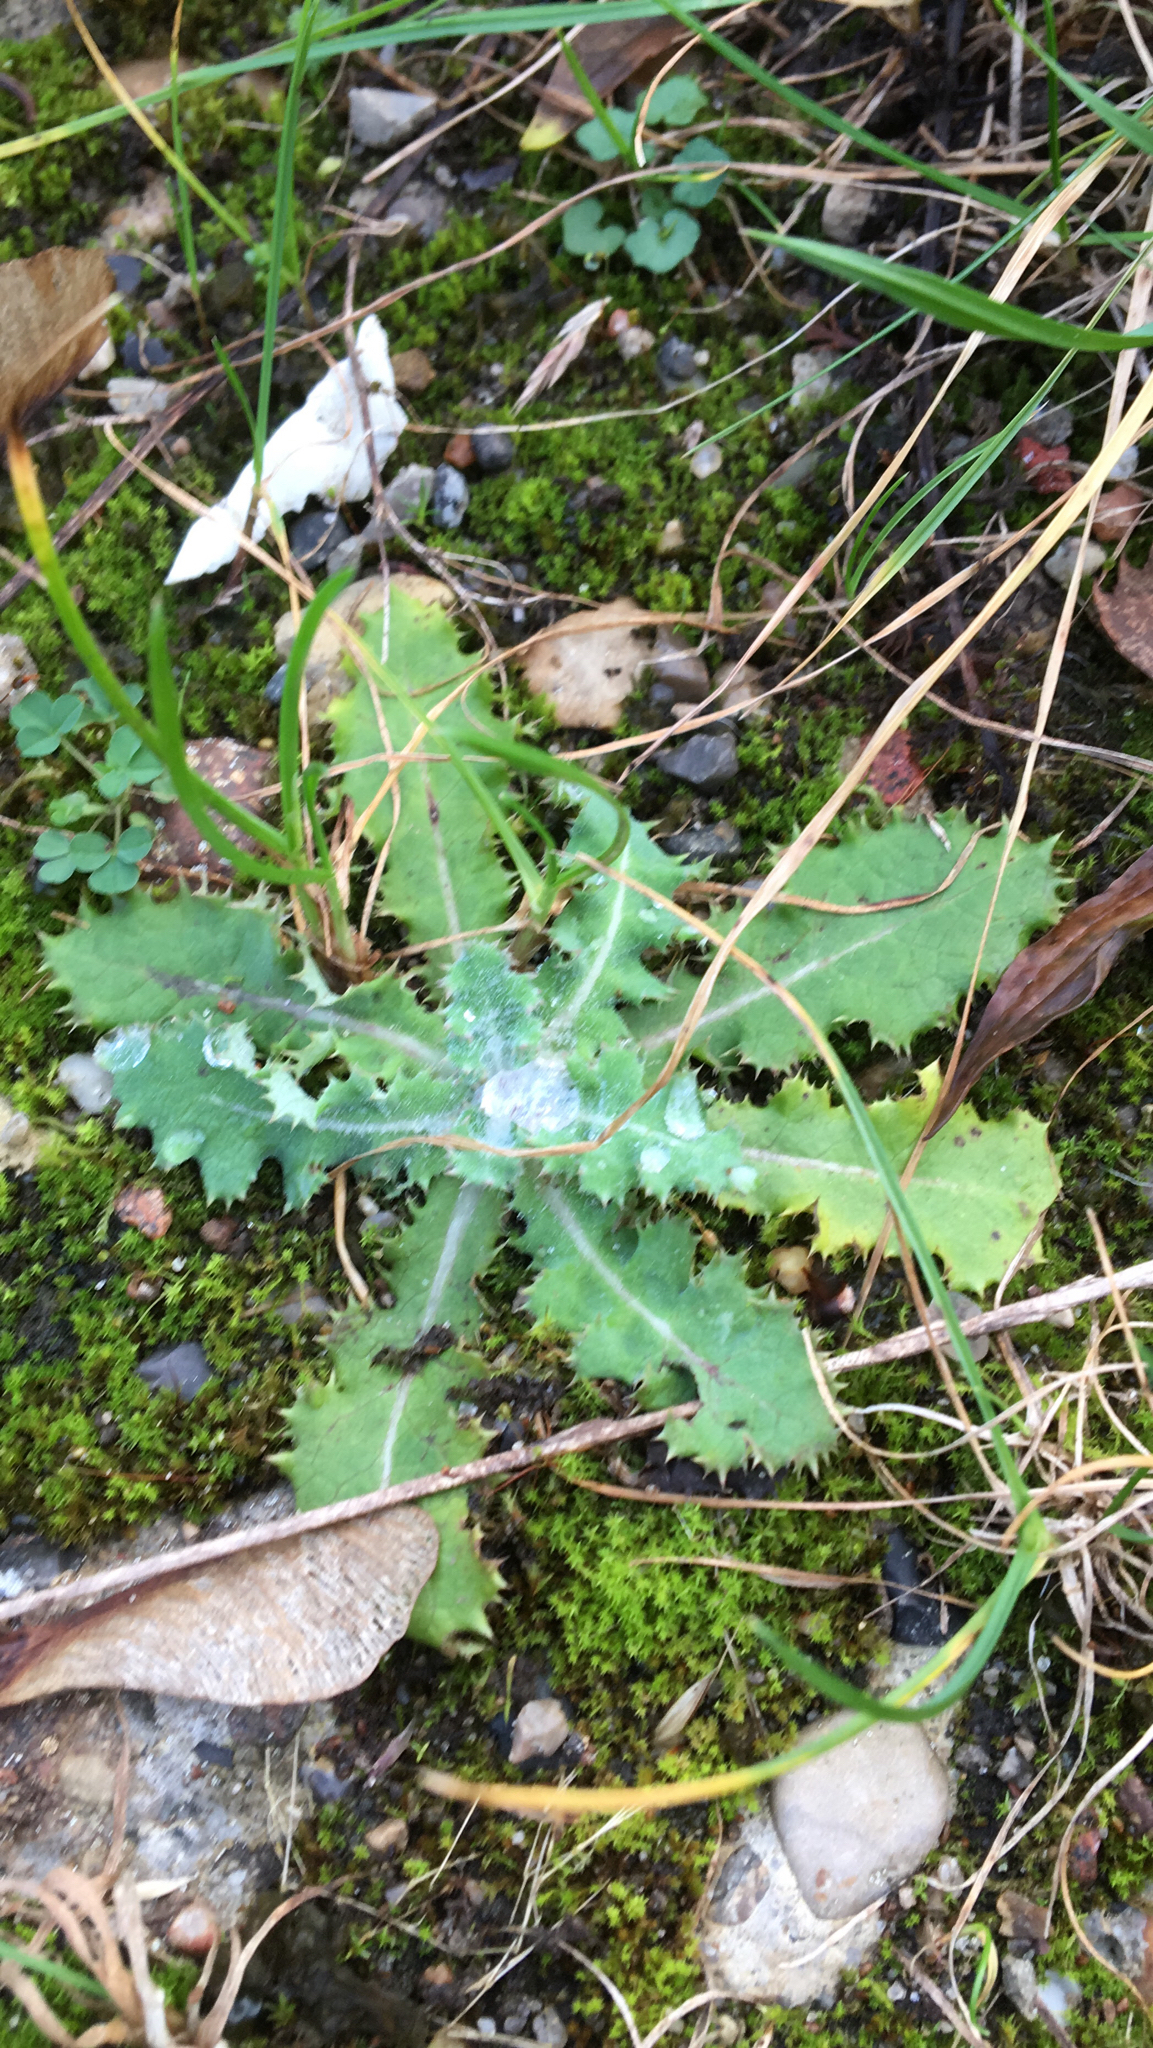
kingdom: Plantae
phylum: Tracheophyta
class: Magnoliopsida
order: Asterales
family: Asteraceae
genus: Sonchus
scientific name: Sonchus asper
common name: Prickly sow-thistle
